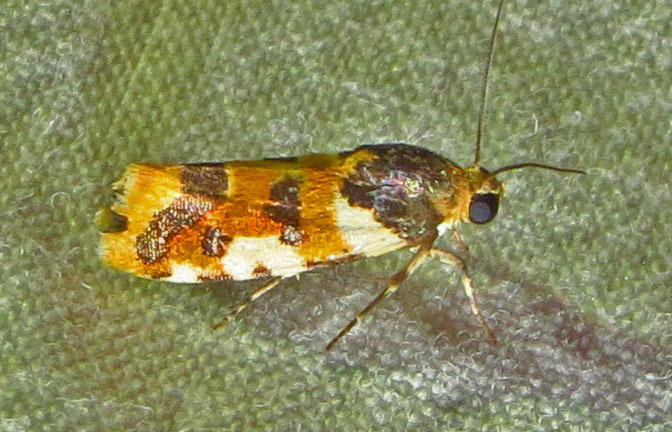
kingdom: Animalia
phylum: Arthropoda
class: Insecta
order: Lepidoptera
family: Noctuidae
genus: Acontia
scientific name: Acontia dama
